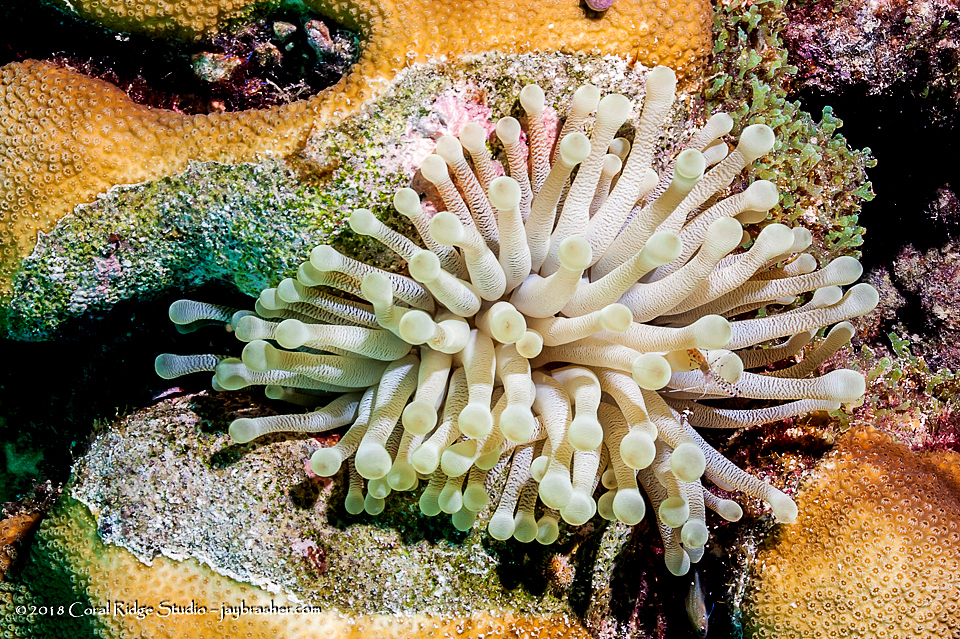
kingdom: Animalia
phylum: Cnidaria
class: Anthozoa
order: Actiniaria
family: Actiniidae
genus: Condylactis
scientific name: Condylactis gigantea
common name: Giant caribbean anemone
